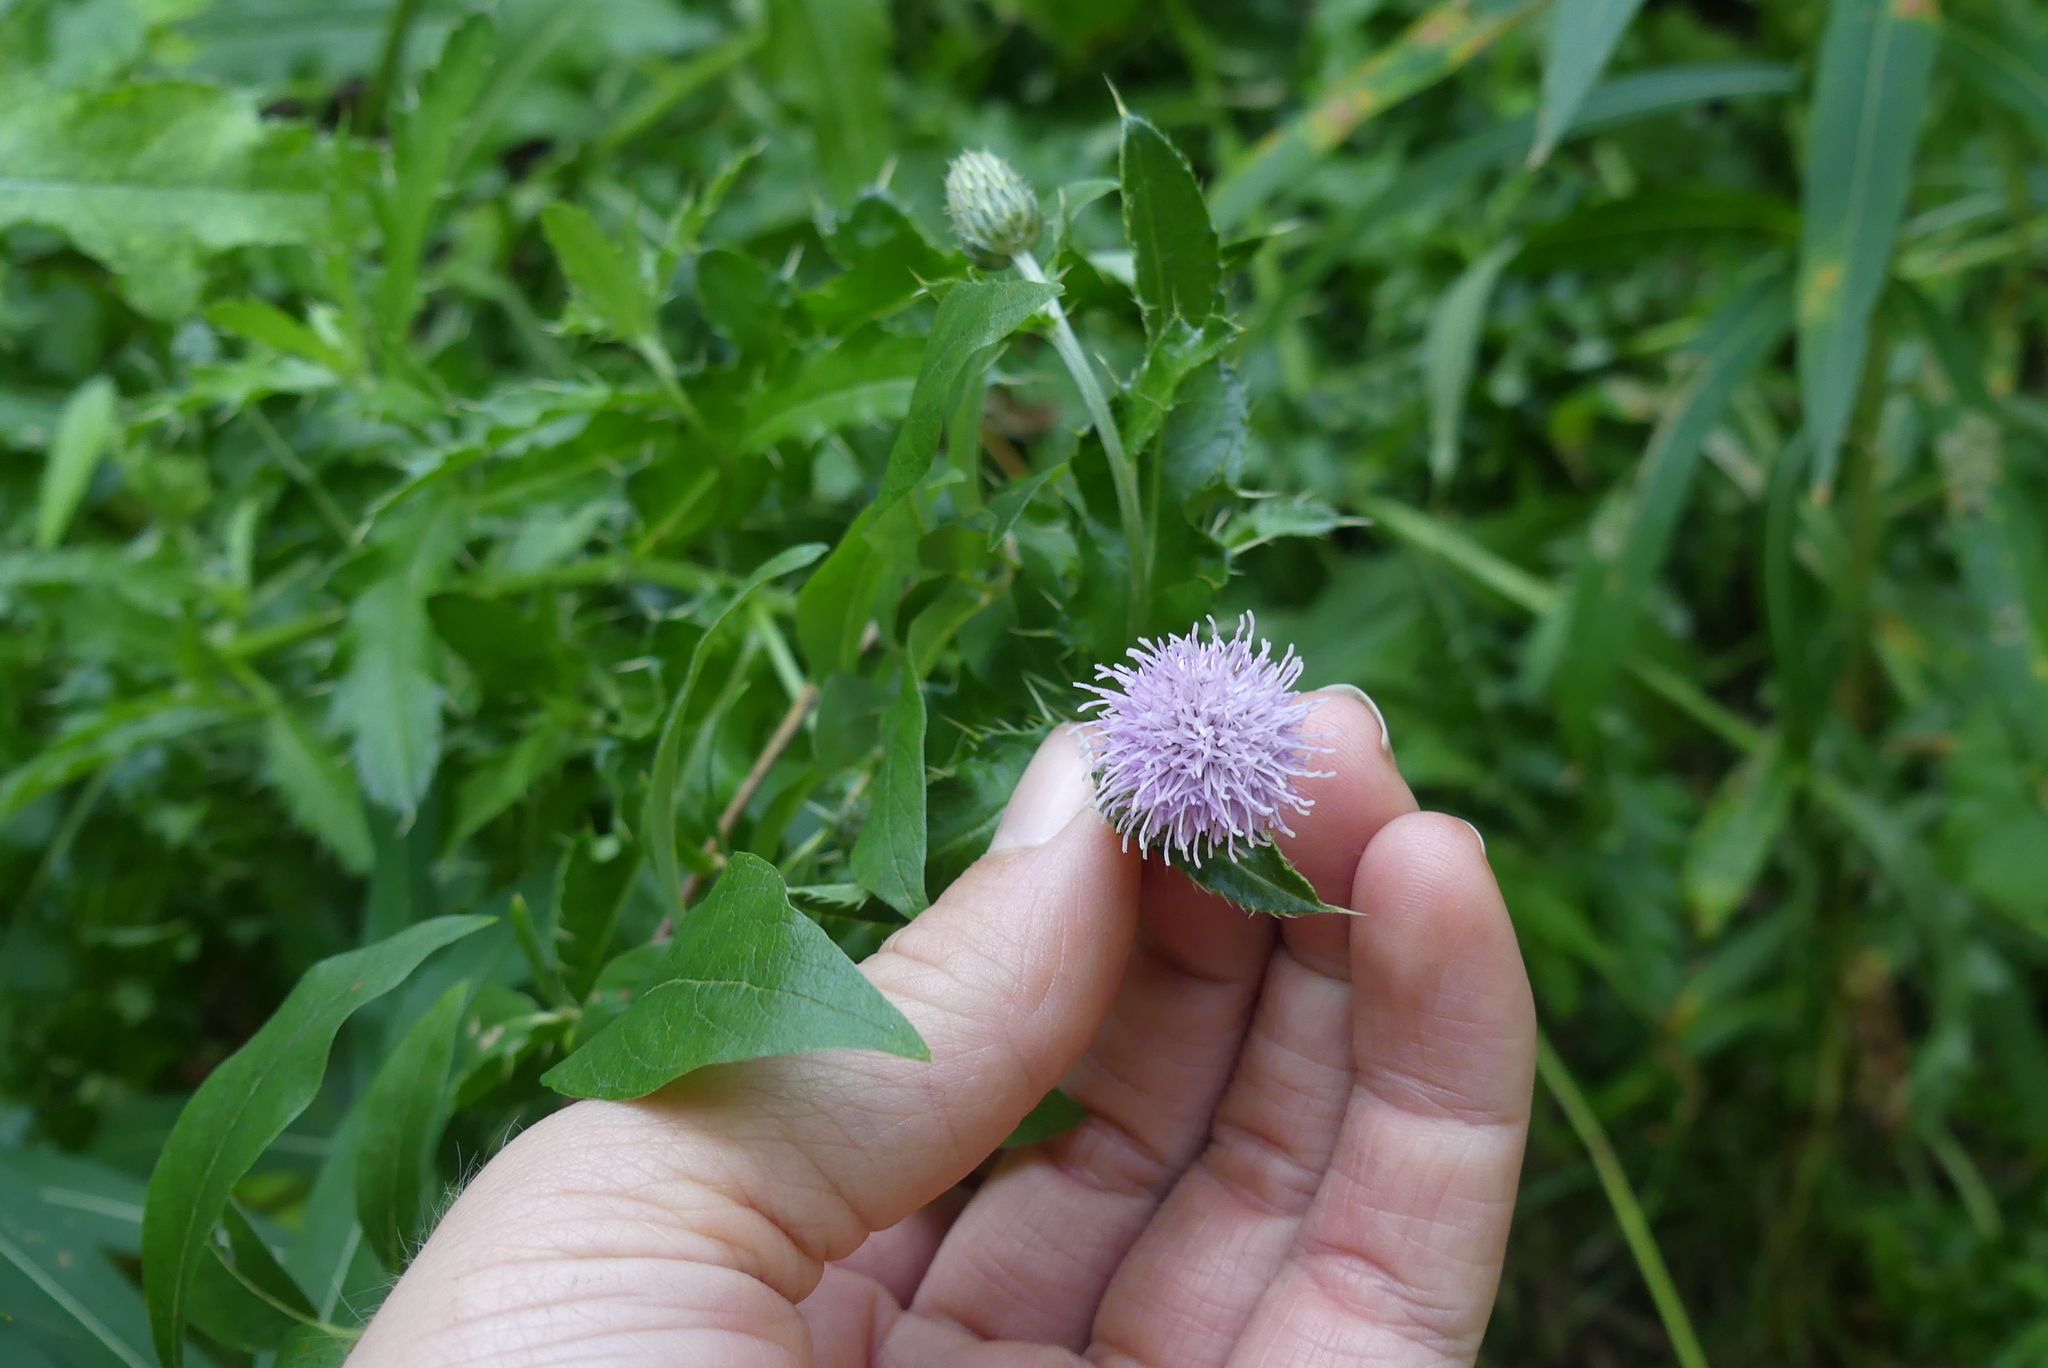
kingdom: Plantae
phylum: Tracheophyta
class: Magnoliopsida
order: Asterales
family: Asteraceae
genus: Cirsium
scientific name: Cirsium arvense
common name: Creeping thistle
